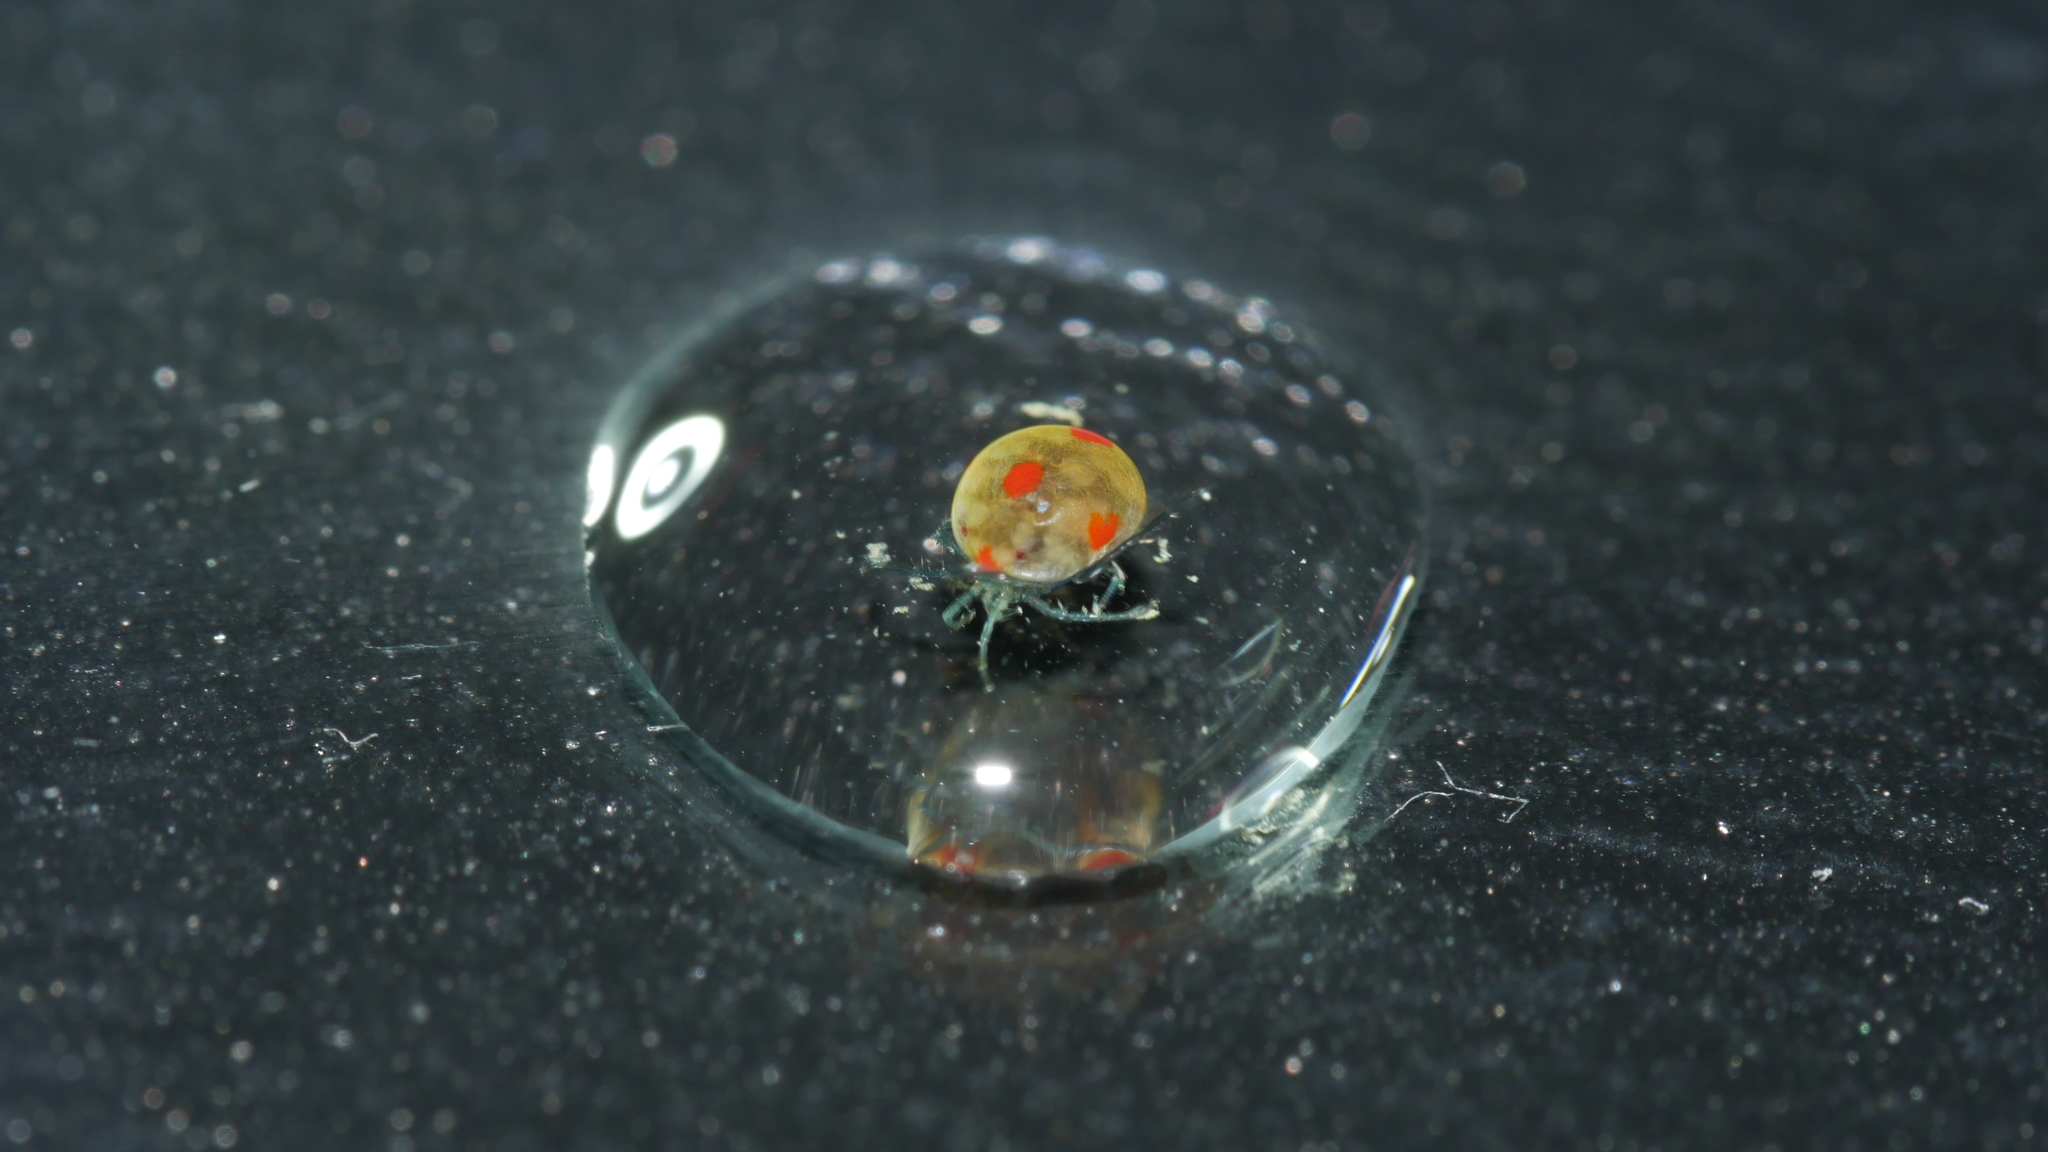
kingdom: Animalia
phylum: Arthropoda
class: Arachnida
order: Trombidiformes
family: Lebertiidae
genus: Lebertia
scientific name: Lebertia
